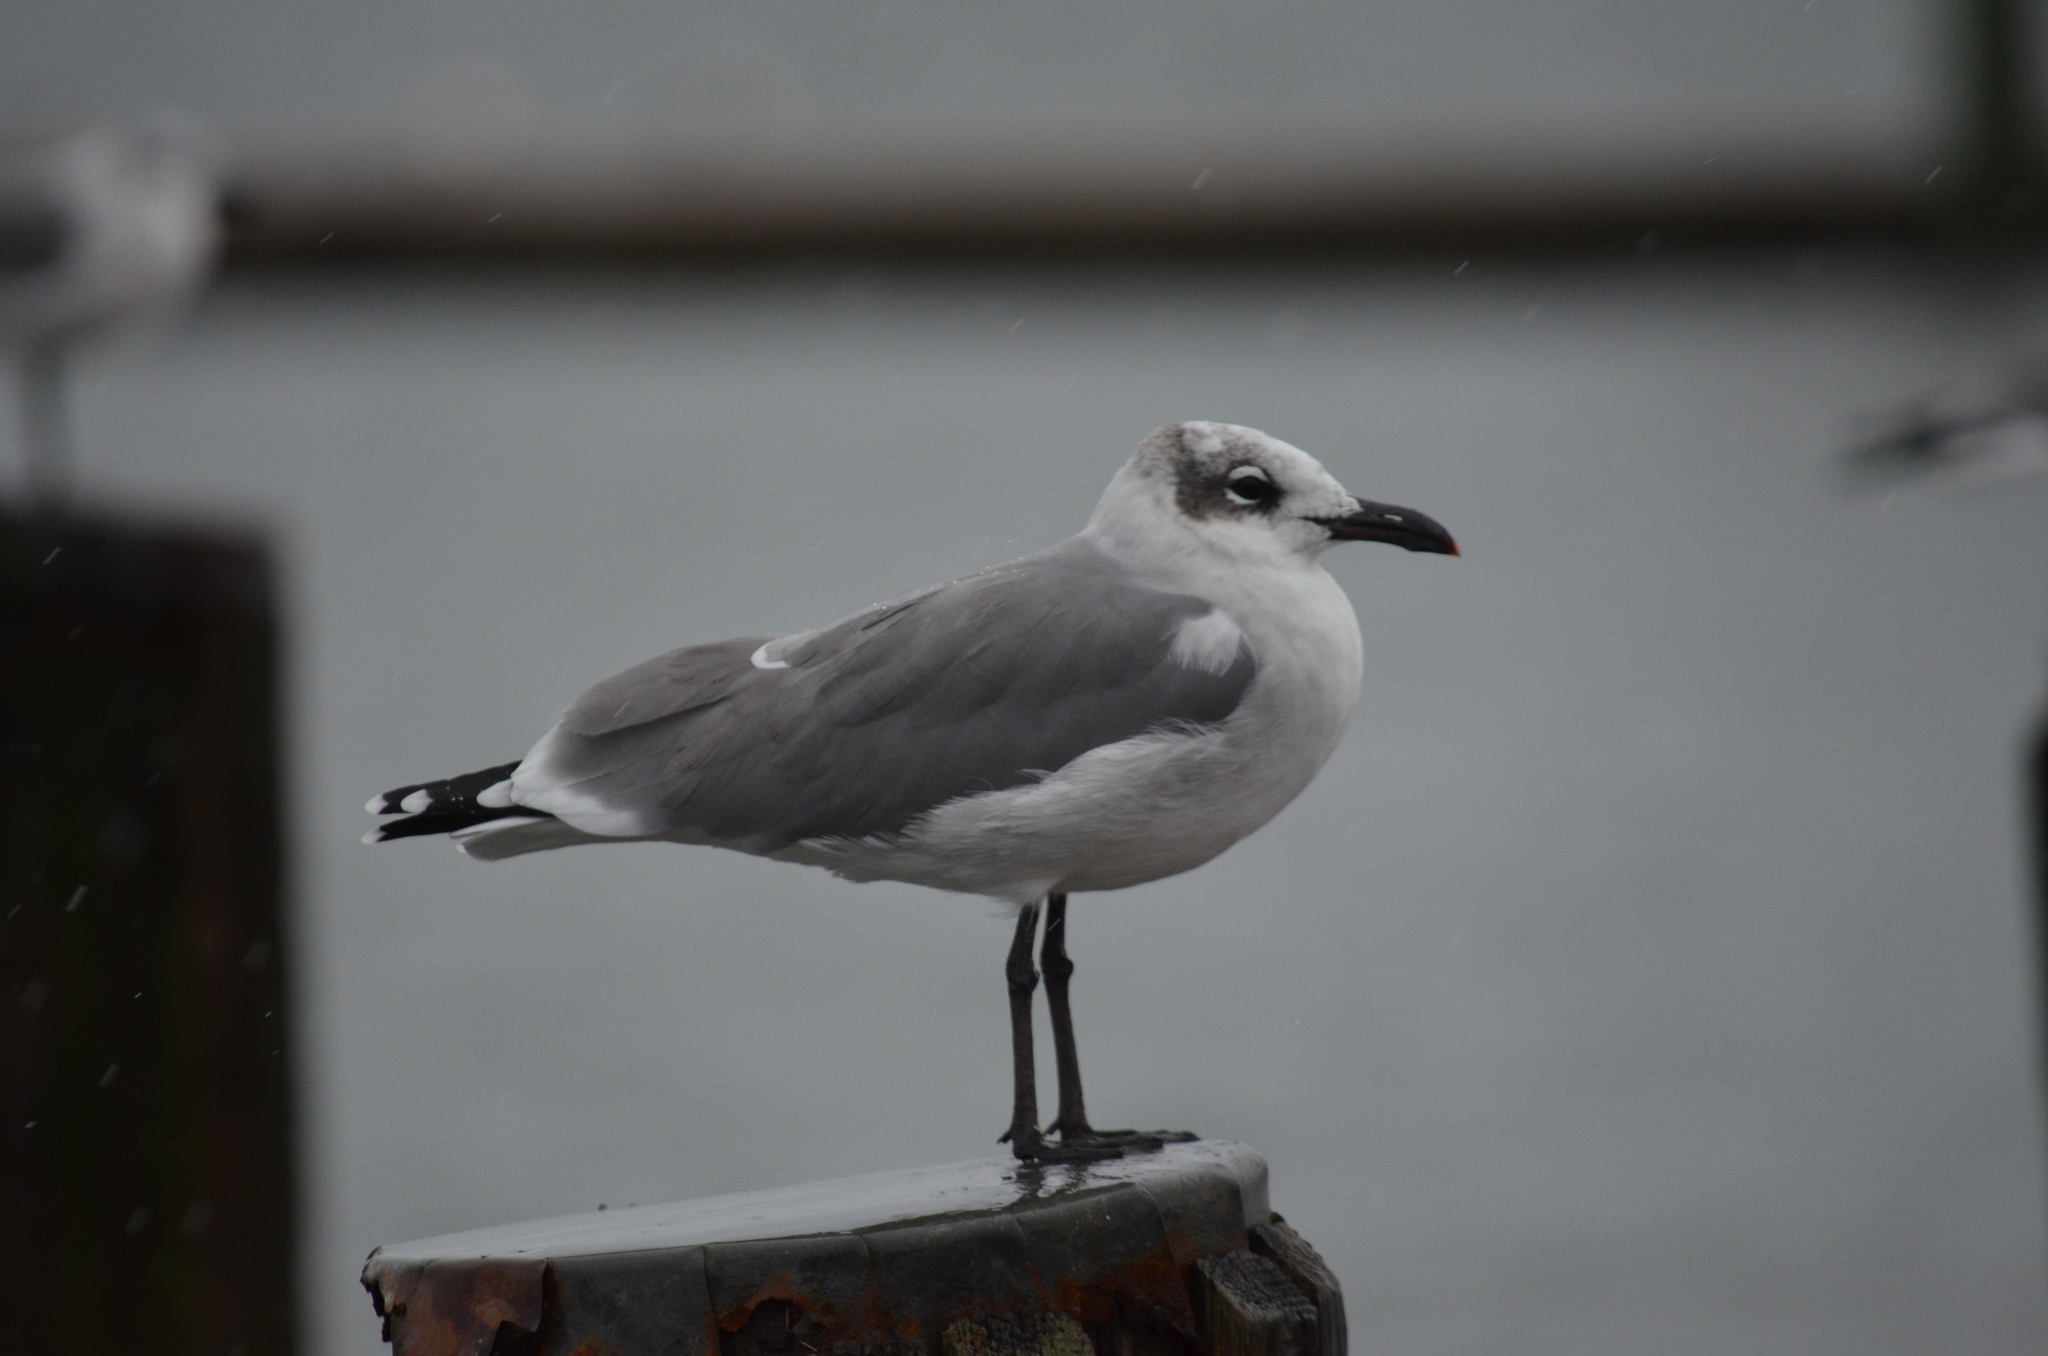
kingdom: Animalia
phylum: Chordata
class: Aves
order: Charadriiformes
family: Laridae
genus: Leucophaeus
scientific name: Leucophaeus atricilla
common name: Laughing gull
